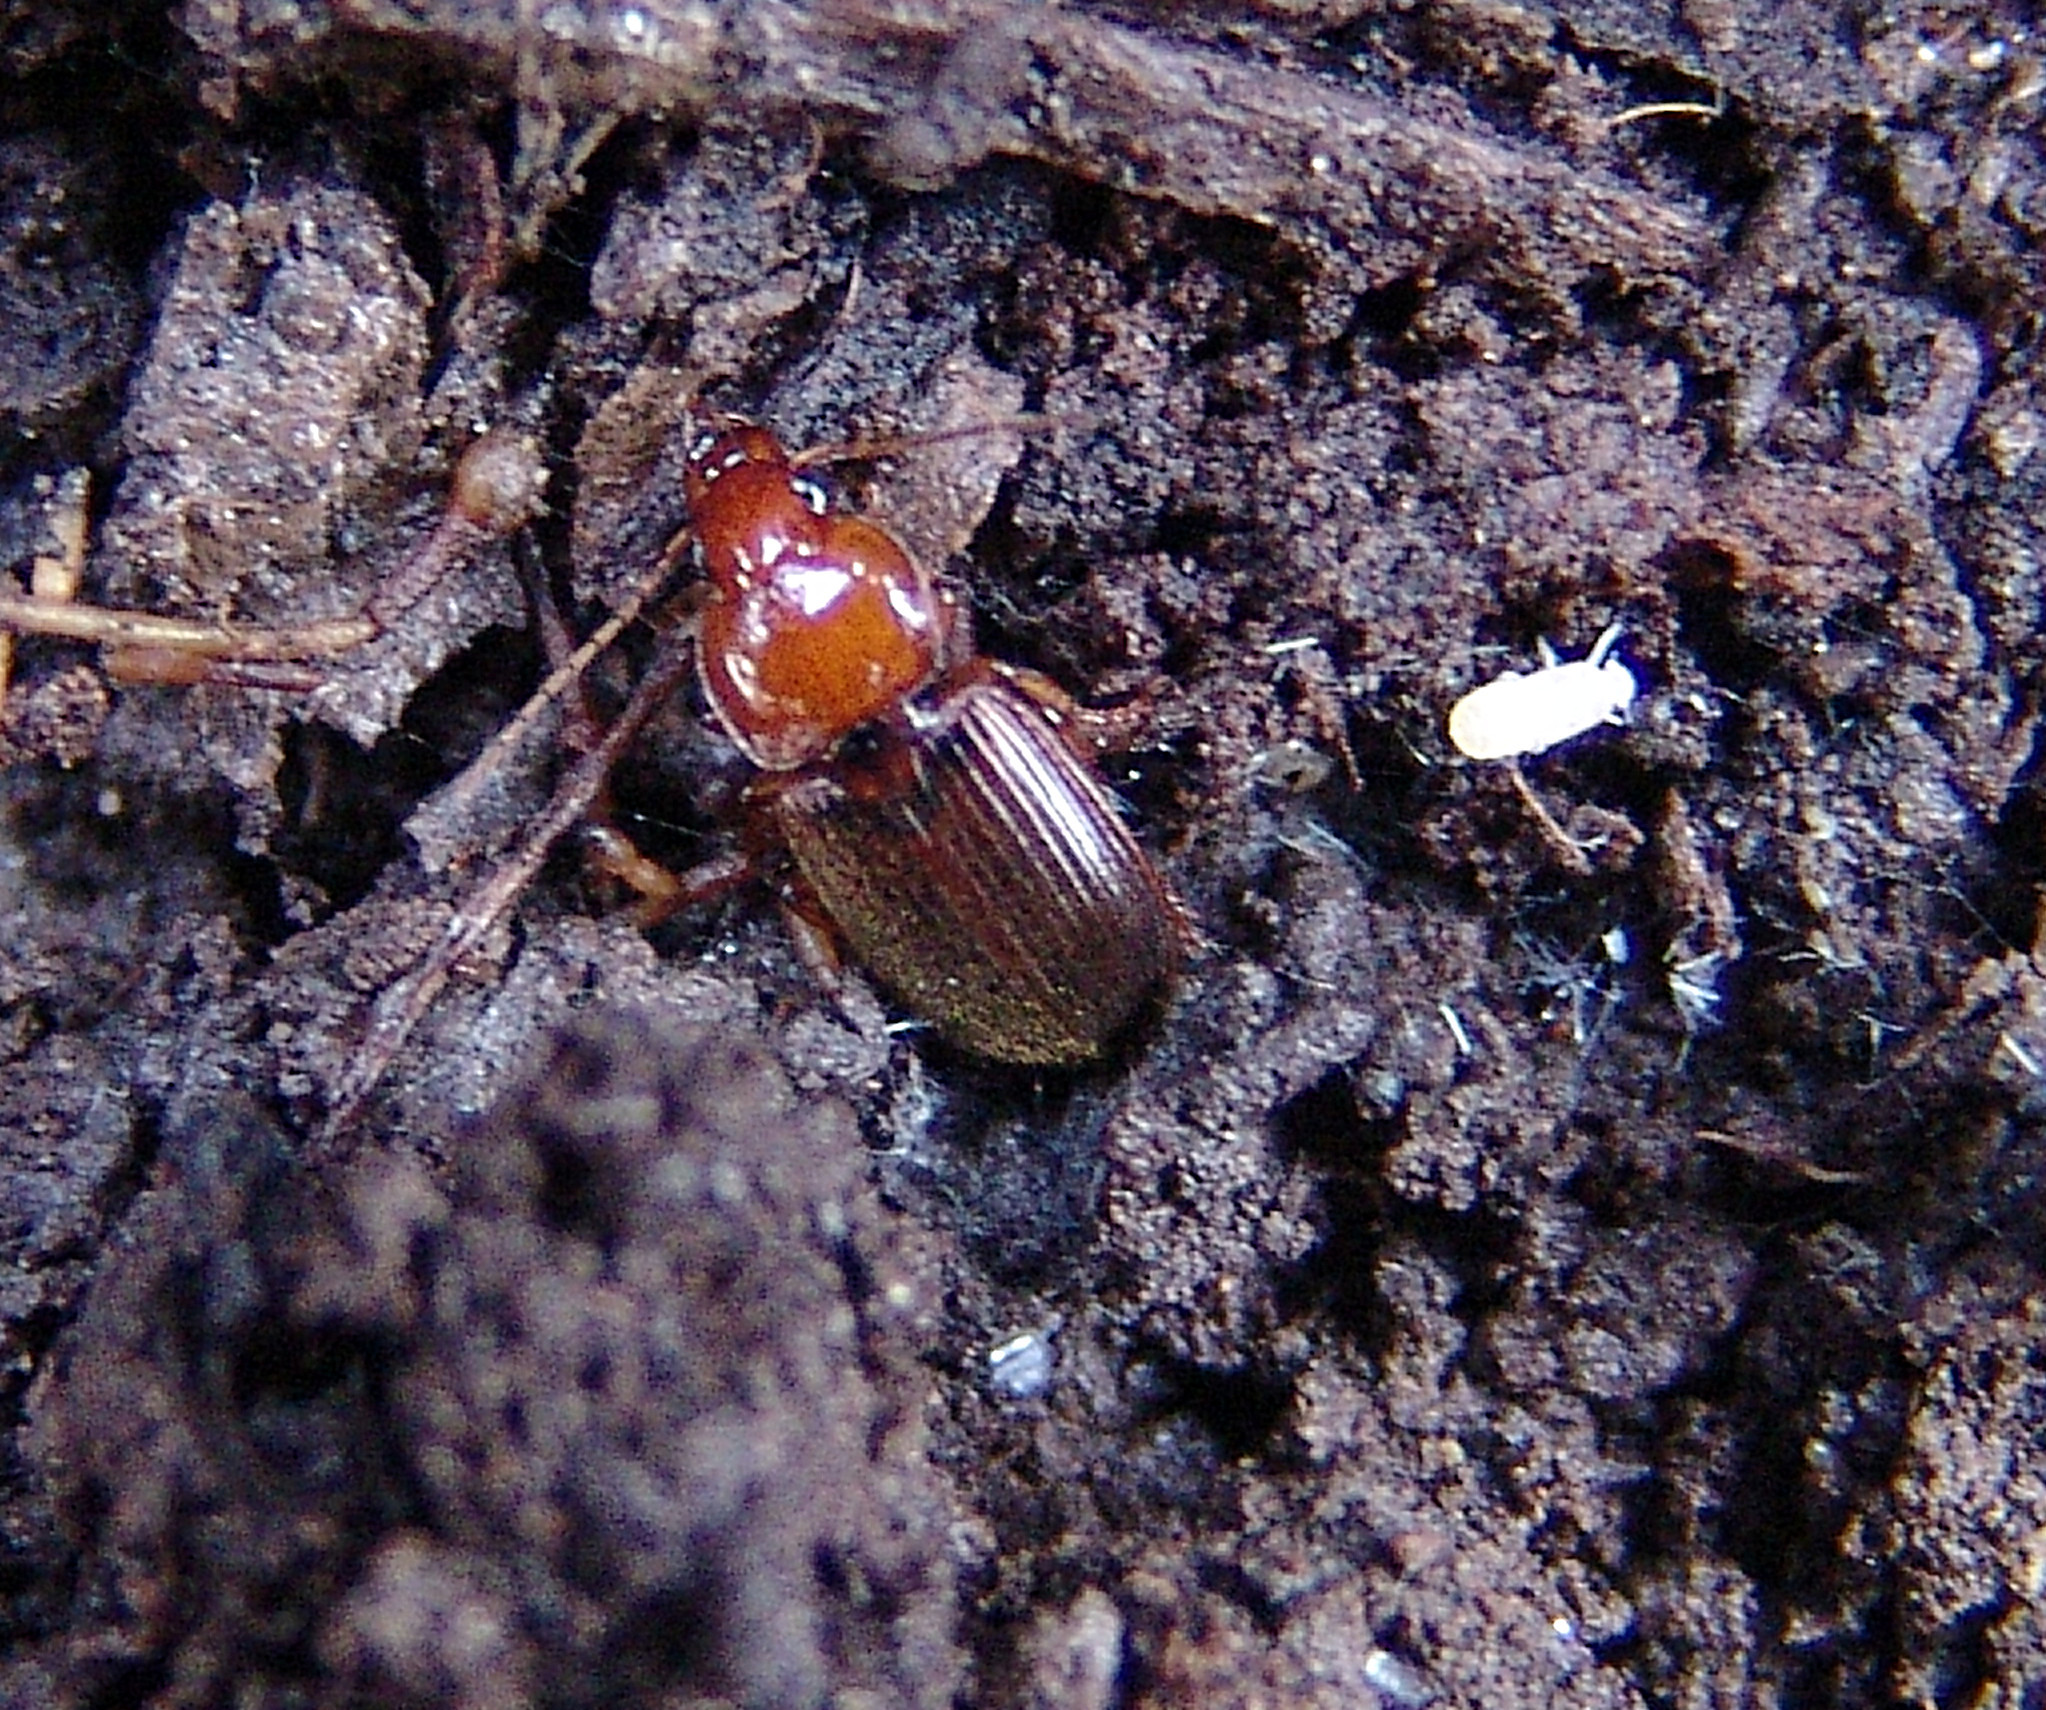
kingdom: Animalia
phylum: Arthropoda
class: Insecta
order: Coleoptera
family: Carabidae
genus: Amphasia
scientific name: Amphasia interstitialis
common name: Red-headed ground beetle
